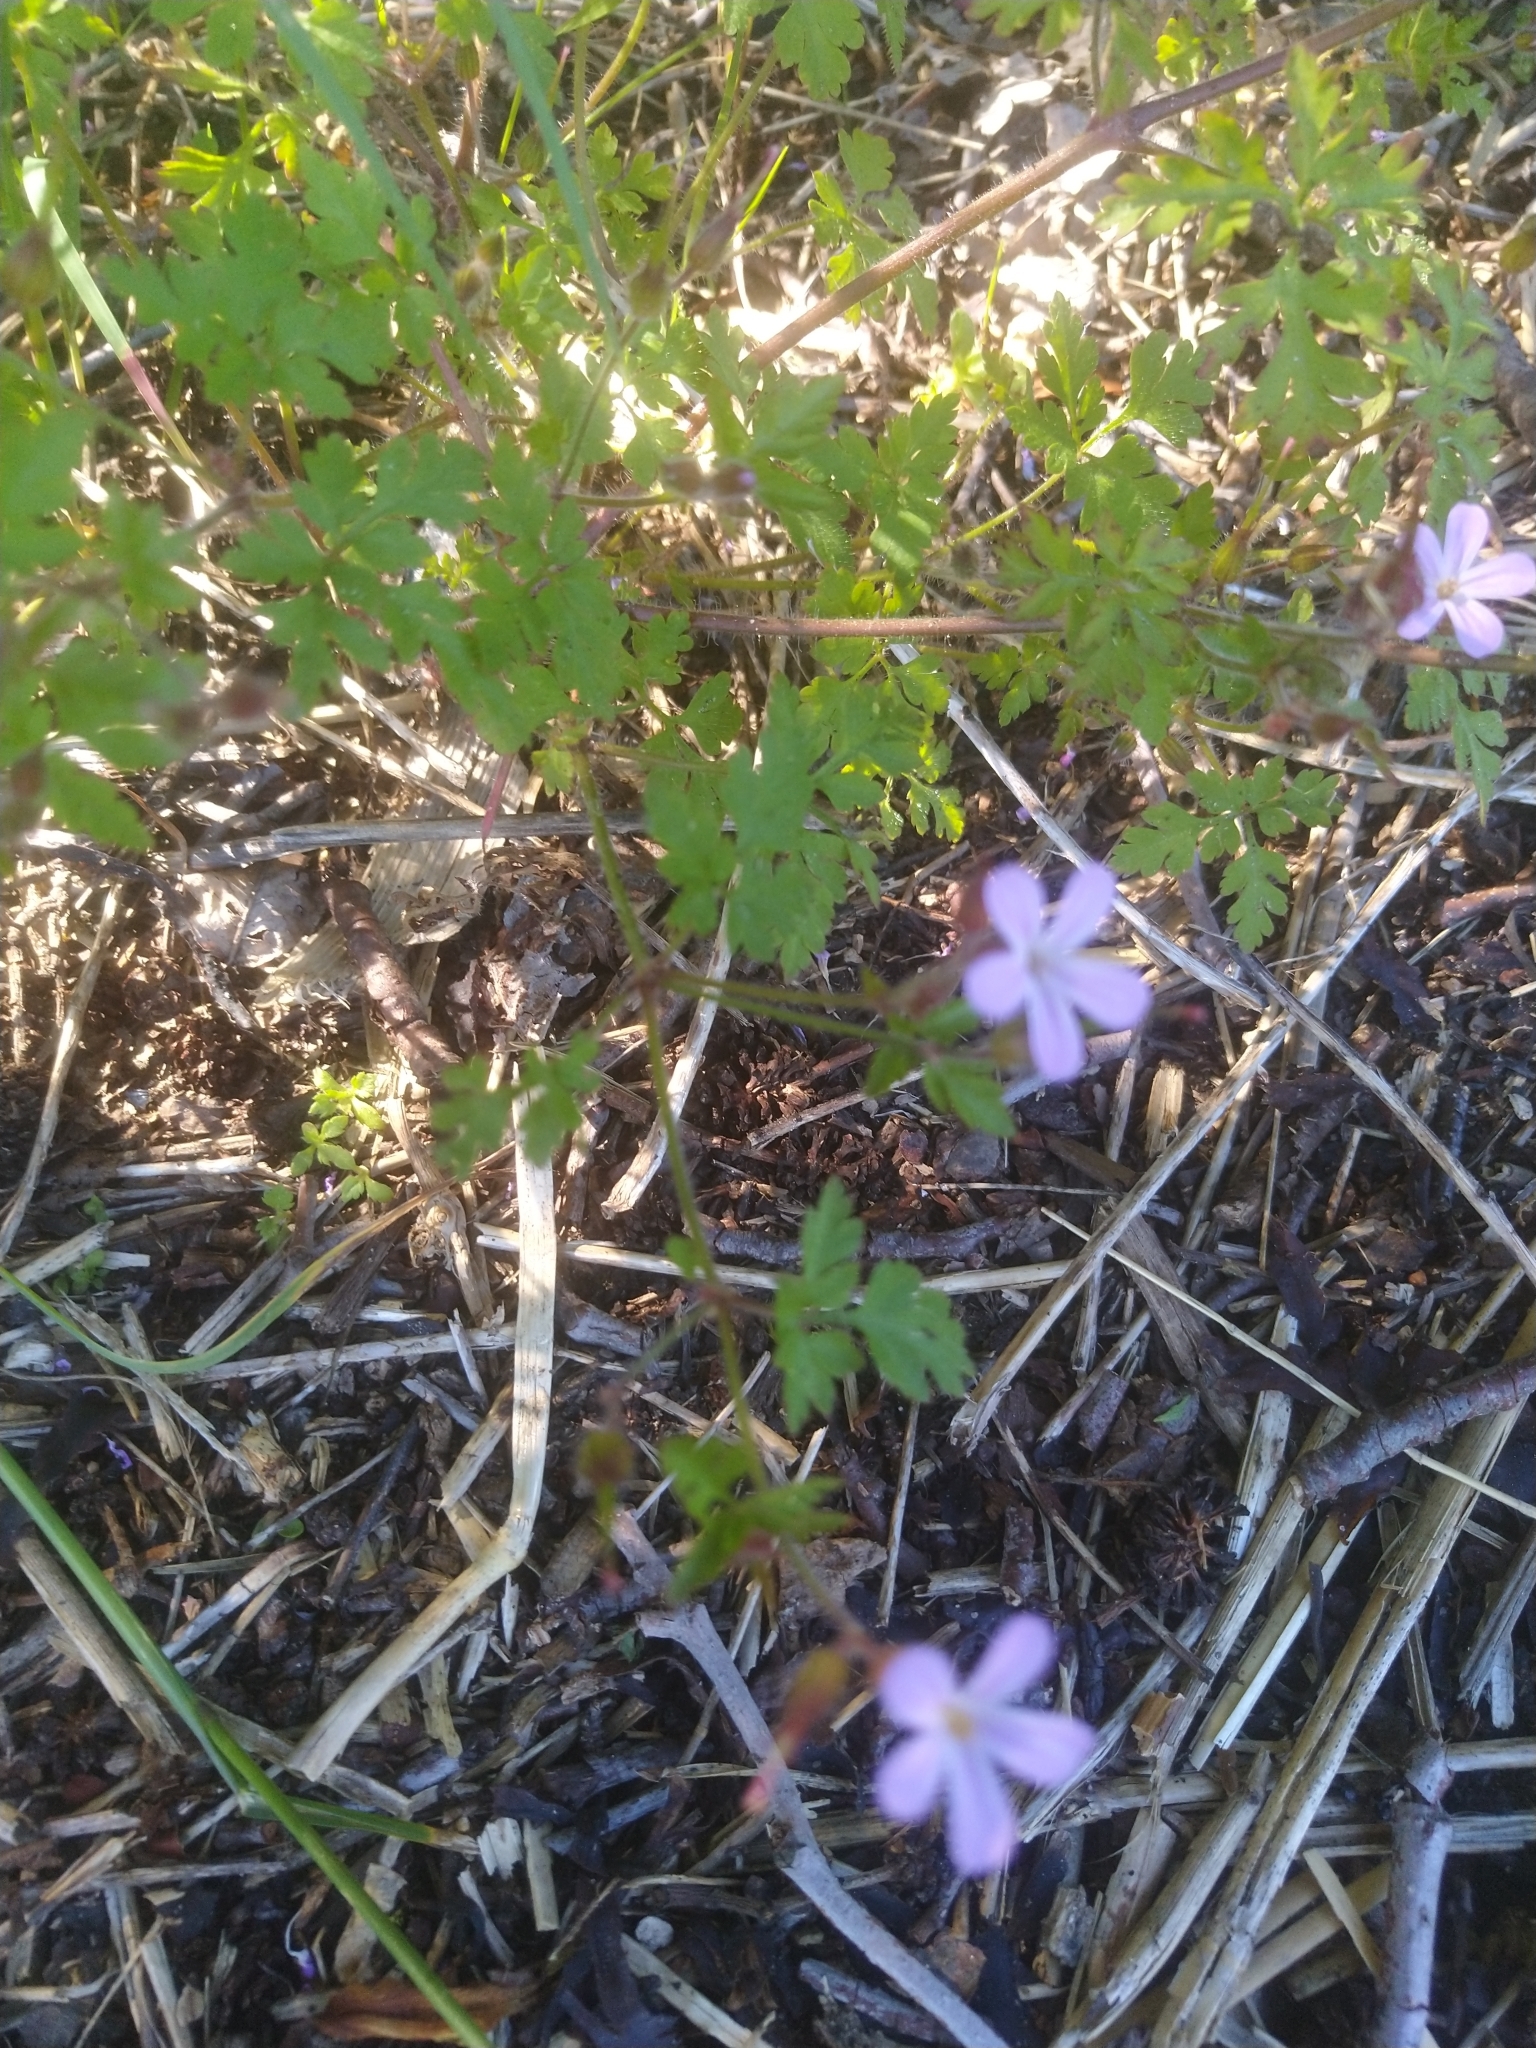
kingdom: Plantae
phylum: Tracheophyta
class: Magnoliopsida
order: Geraniales
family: Geraniaceae
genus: Geranium
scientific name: Geranium robertianum
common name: Herb-robert
